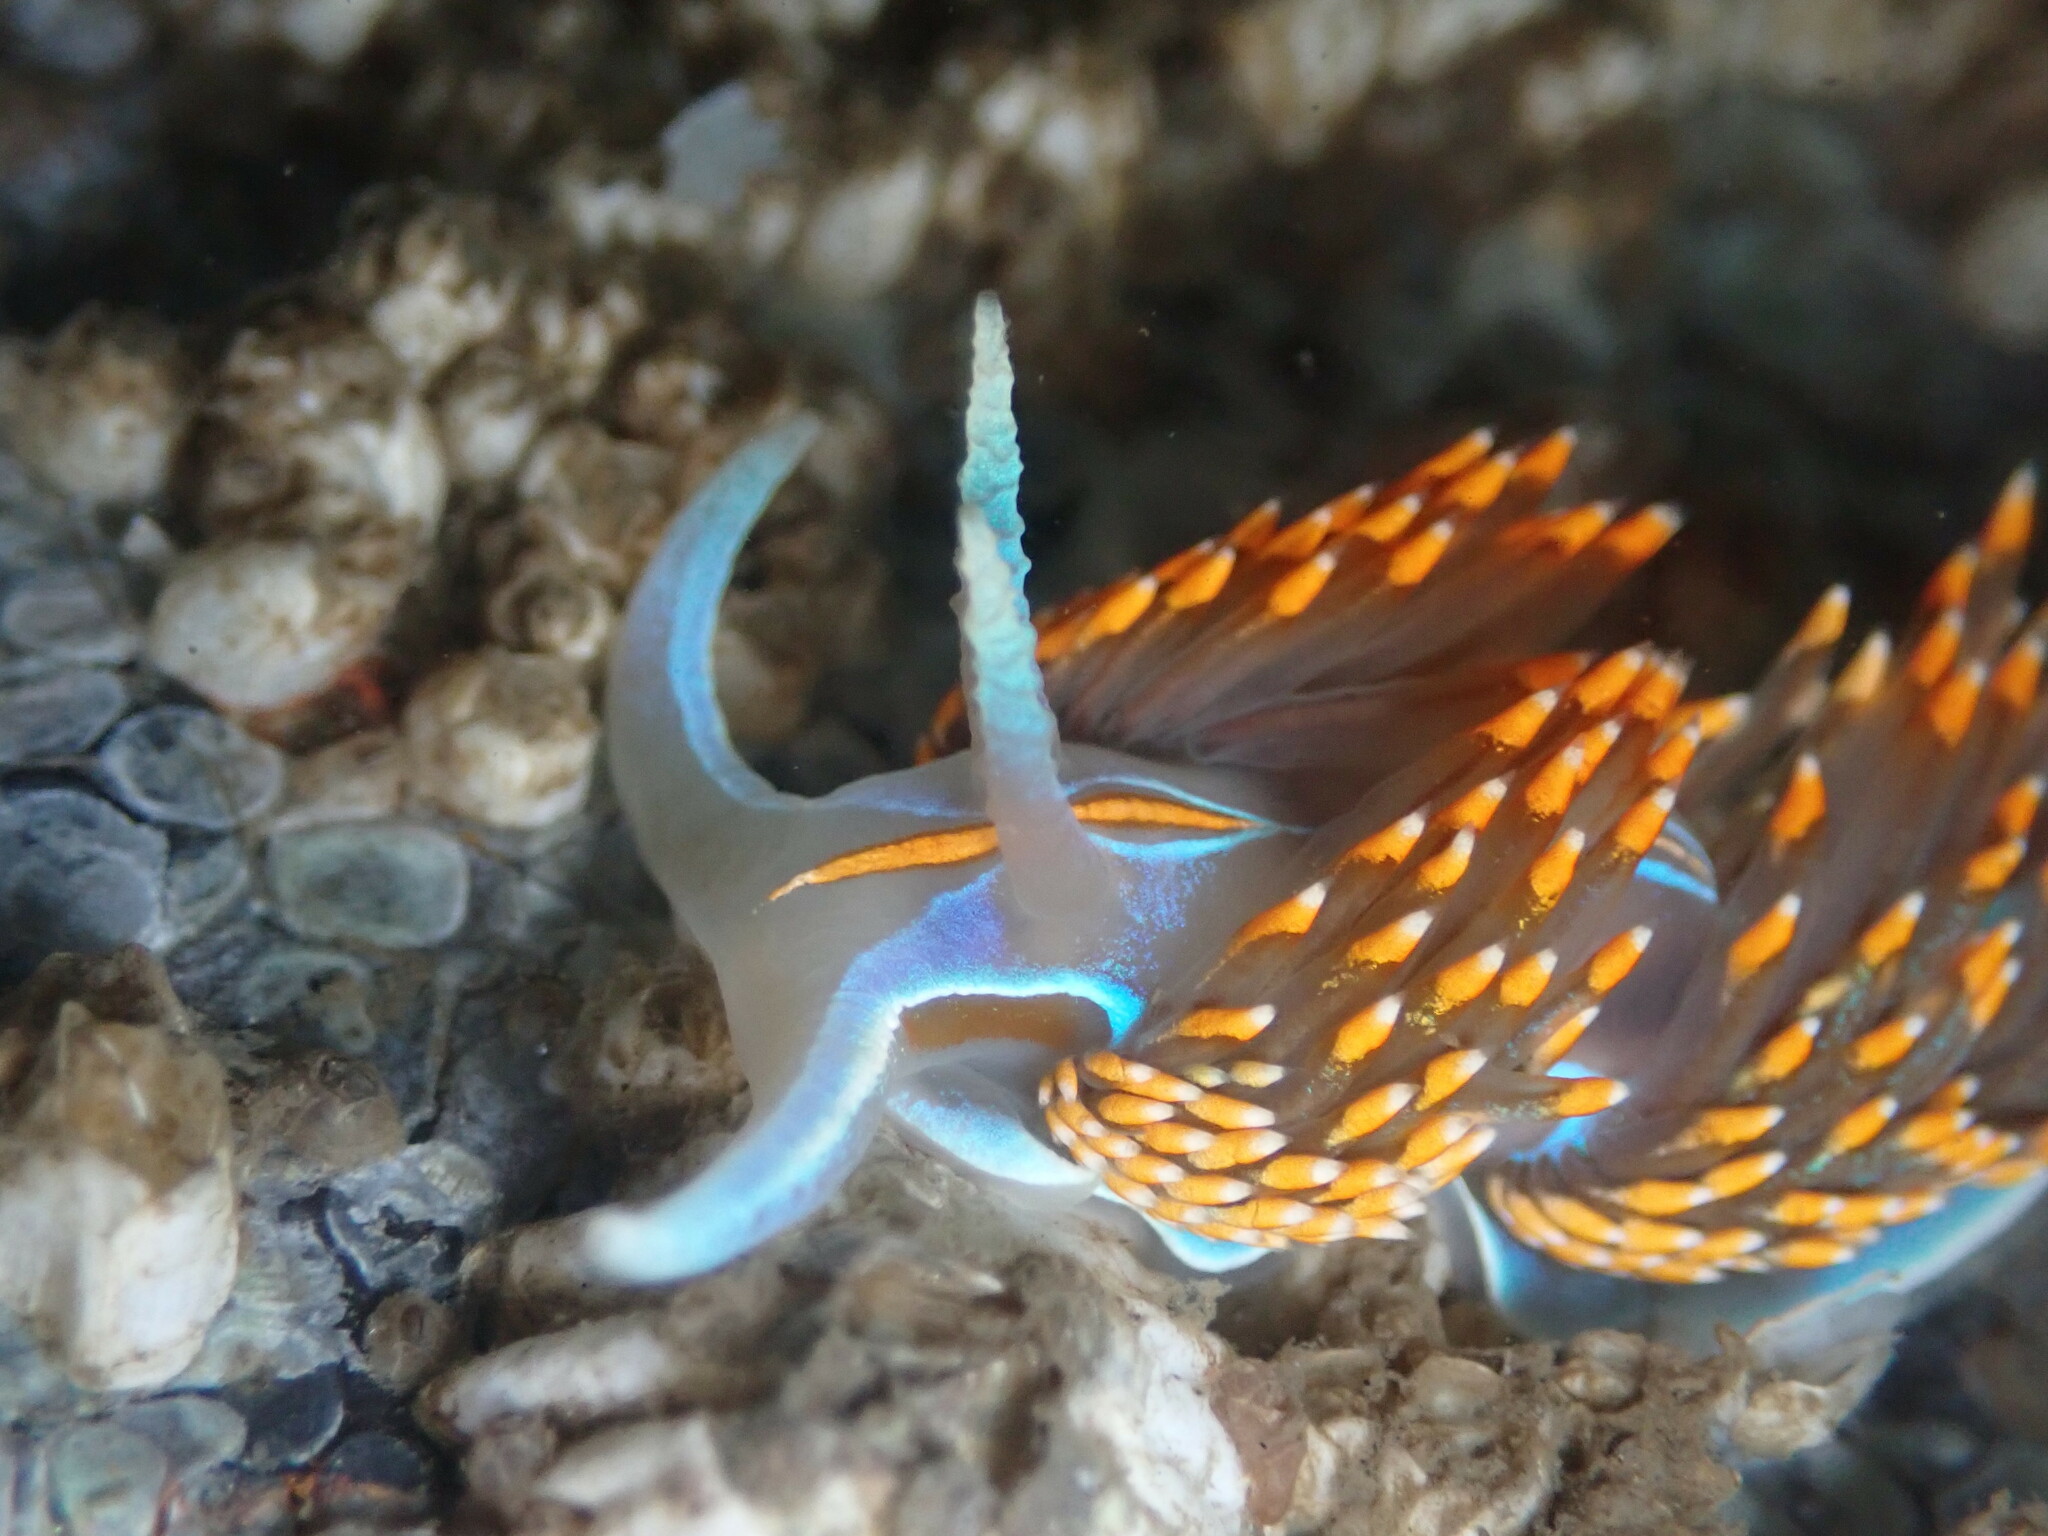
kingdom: Animalia
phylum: Mollusca
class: Gastropoda
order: Nudibranchia
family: Myrrhinidae
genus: Hermissenda
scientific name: Hermissenda opalescens
